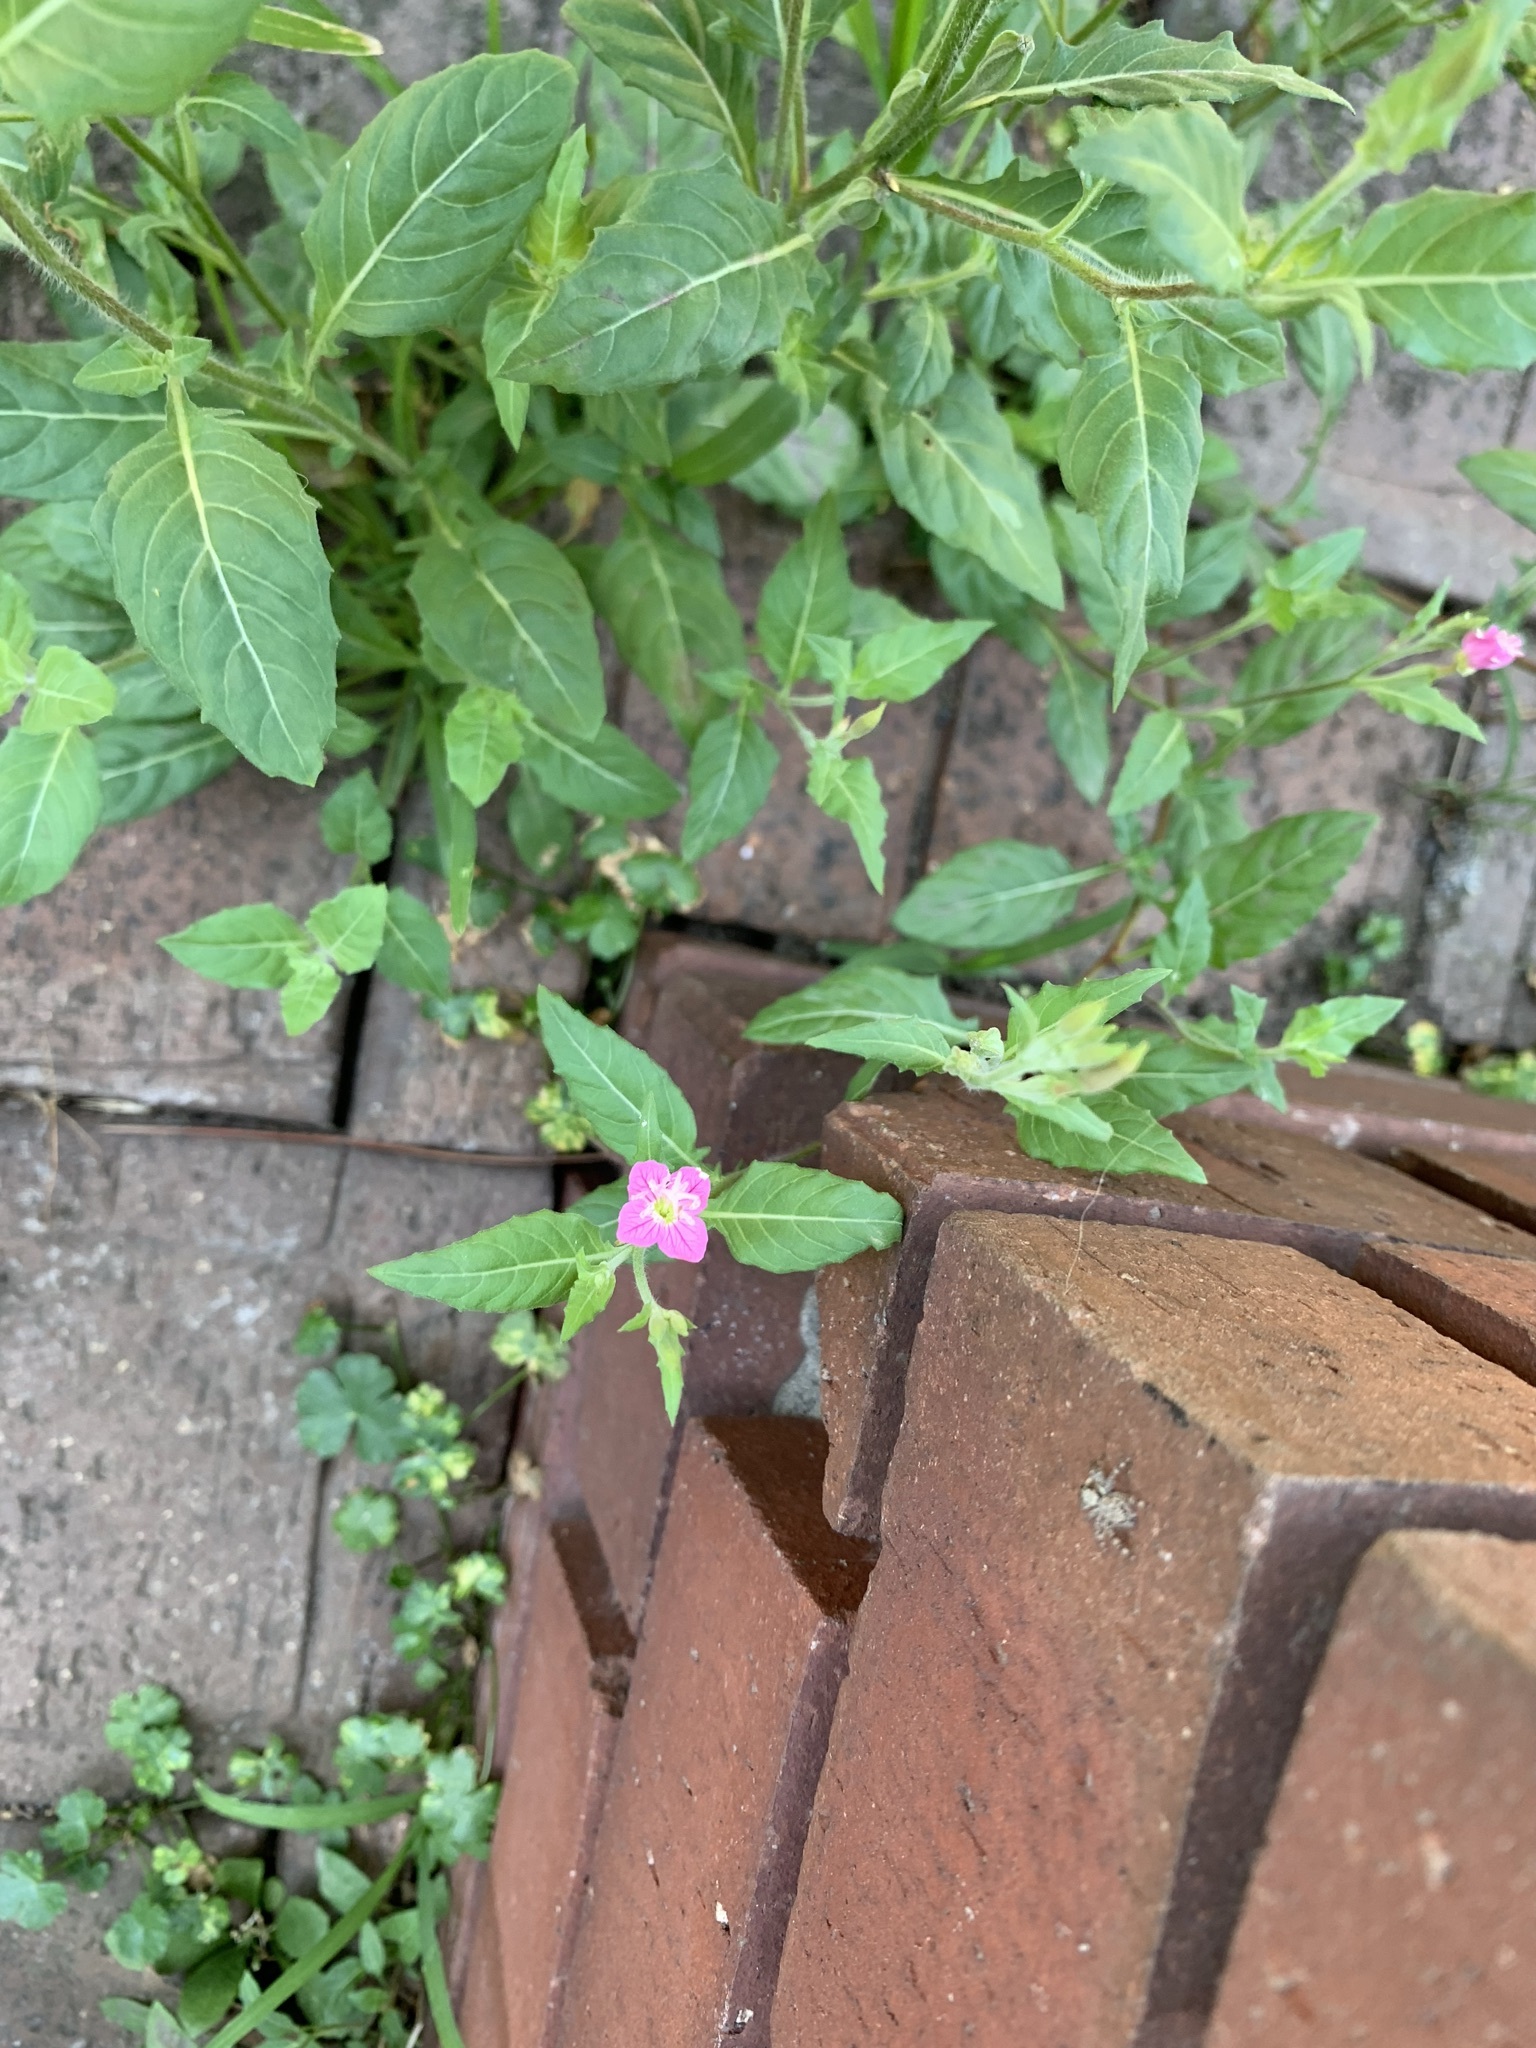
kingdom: Plantae
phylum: Tracheophyta
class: Magnoliopsida
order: Myrtales
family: Onagraceae
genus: Oenothera
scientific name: Oenothera rosea
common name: Rosy evening-primrose
